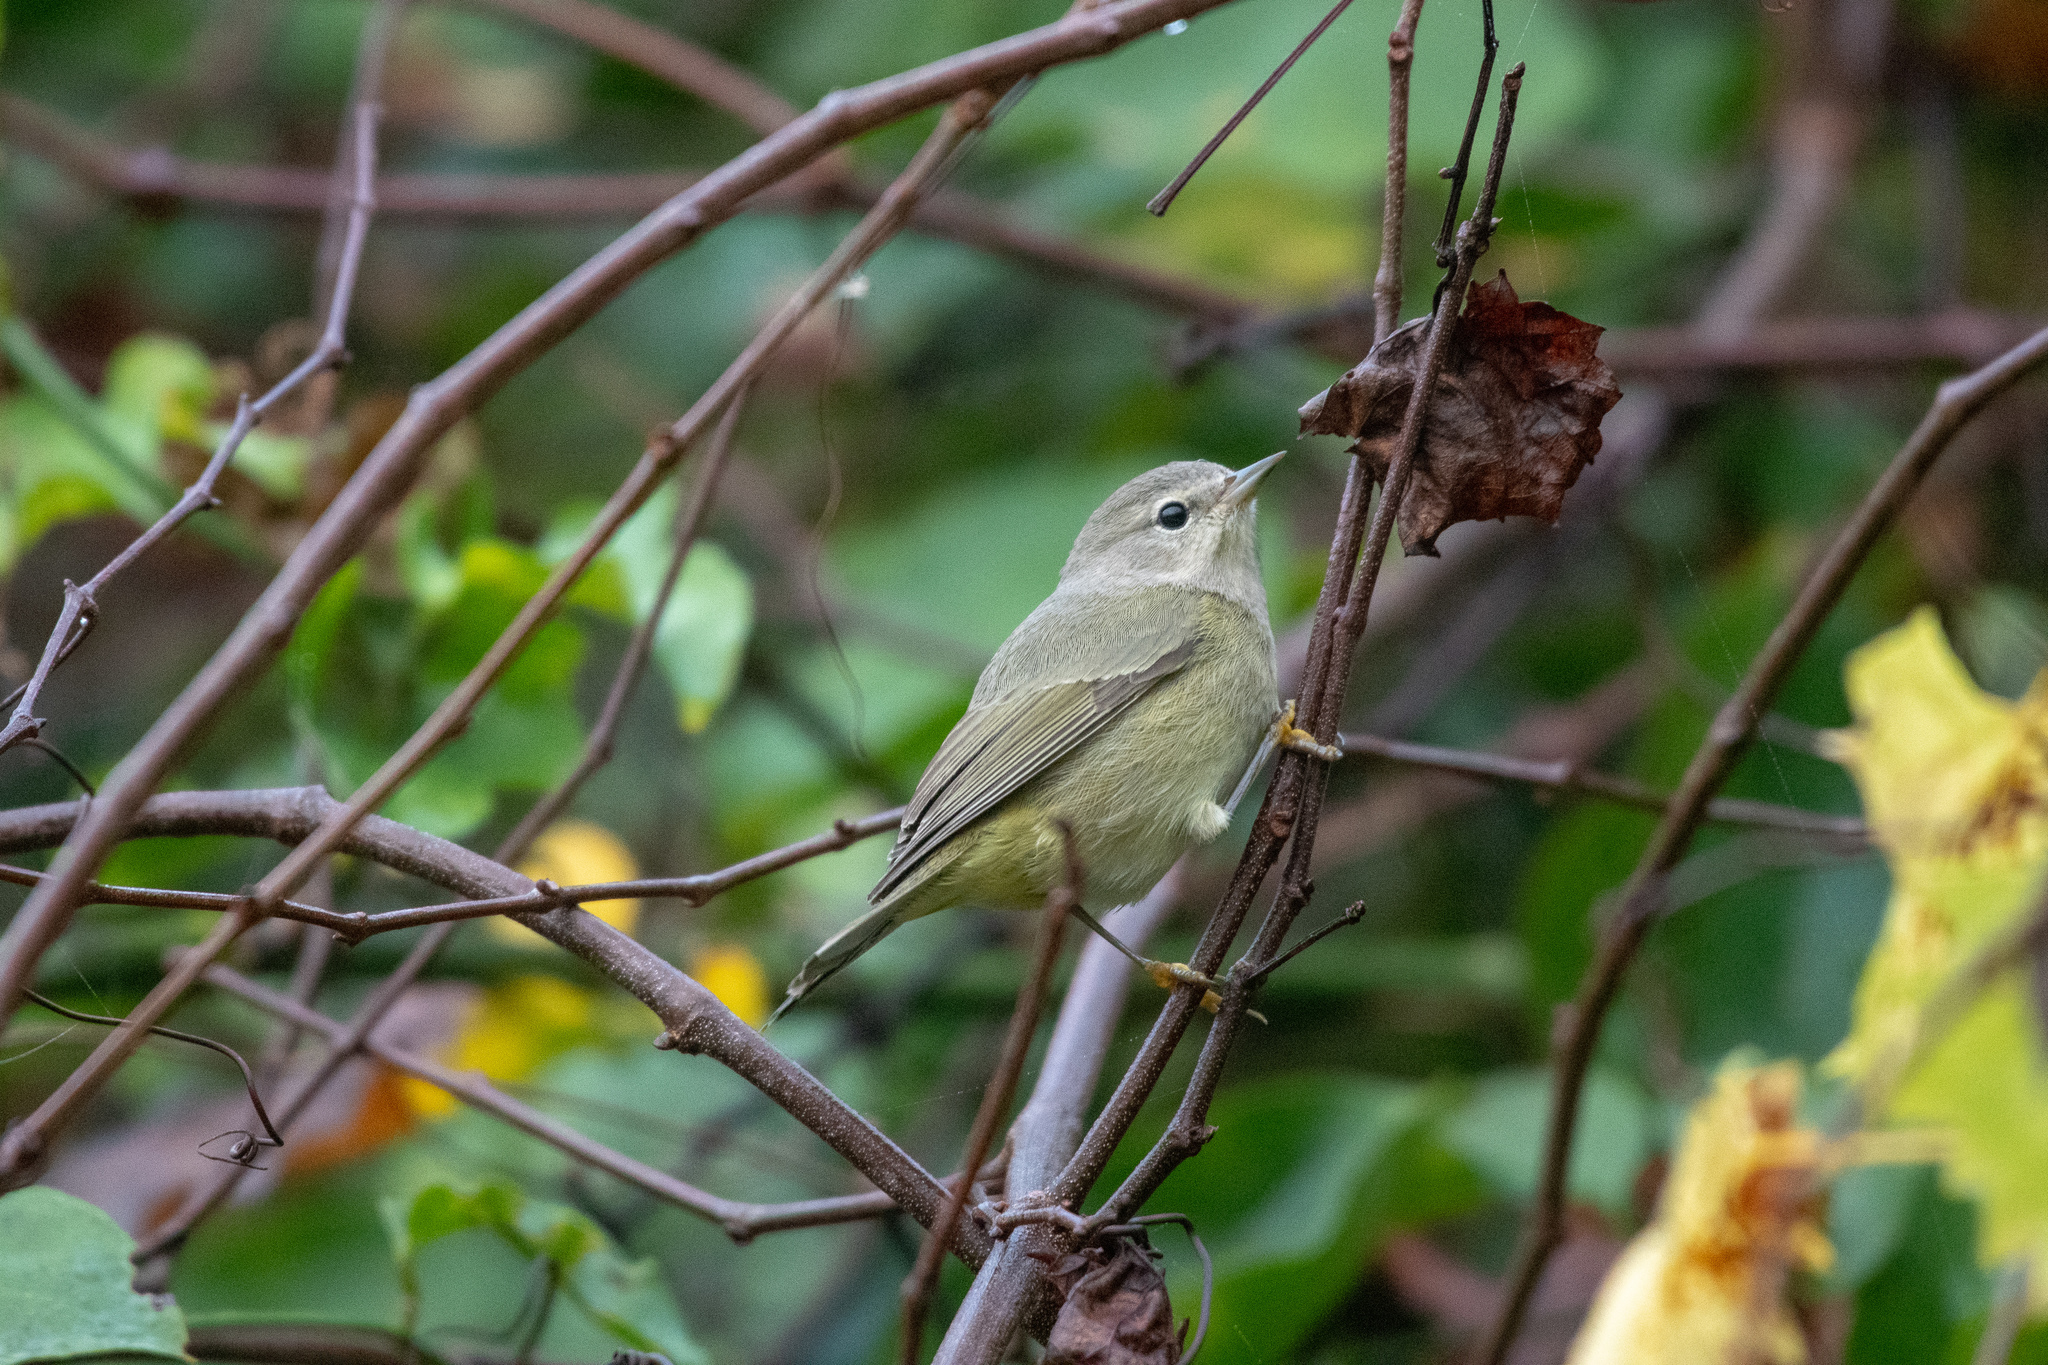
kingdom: Animalia
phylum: Chordata
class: Aves
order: Passeriformes
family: Parulidae
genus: Leiothlypis
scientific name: Leiothlypis celata
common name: Orange-crowned warbler
